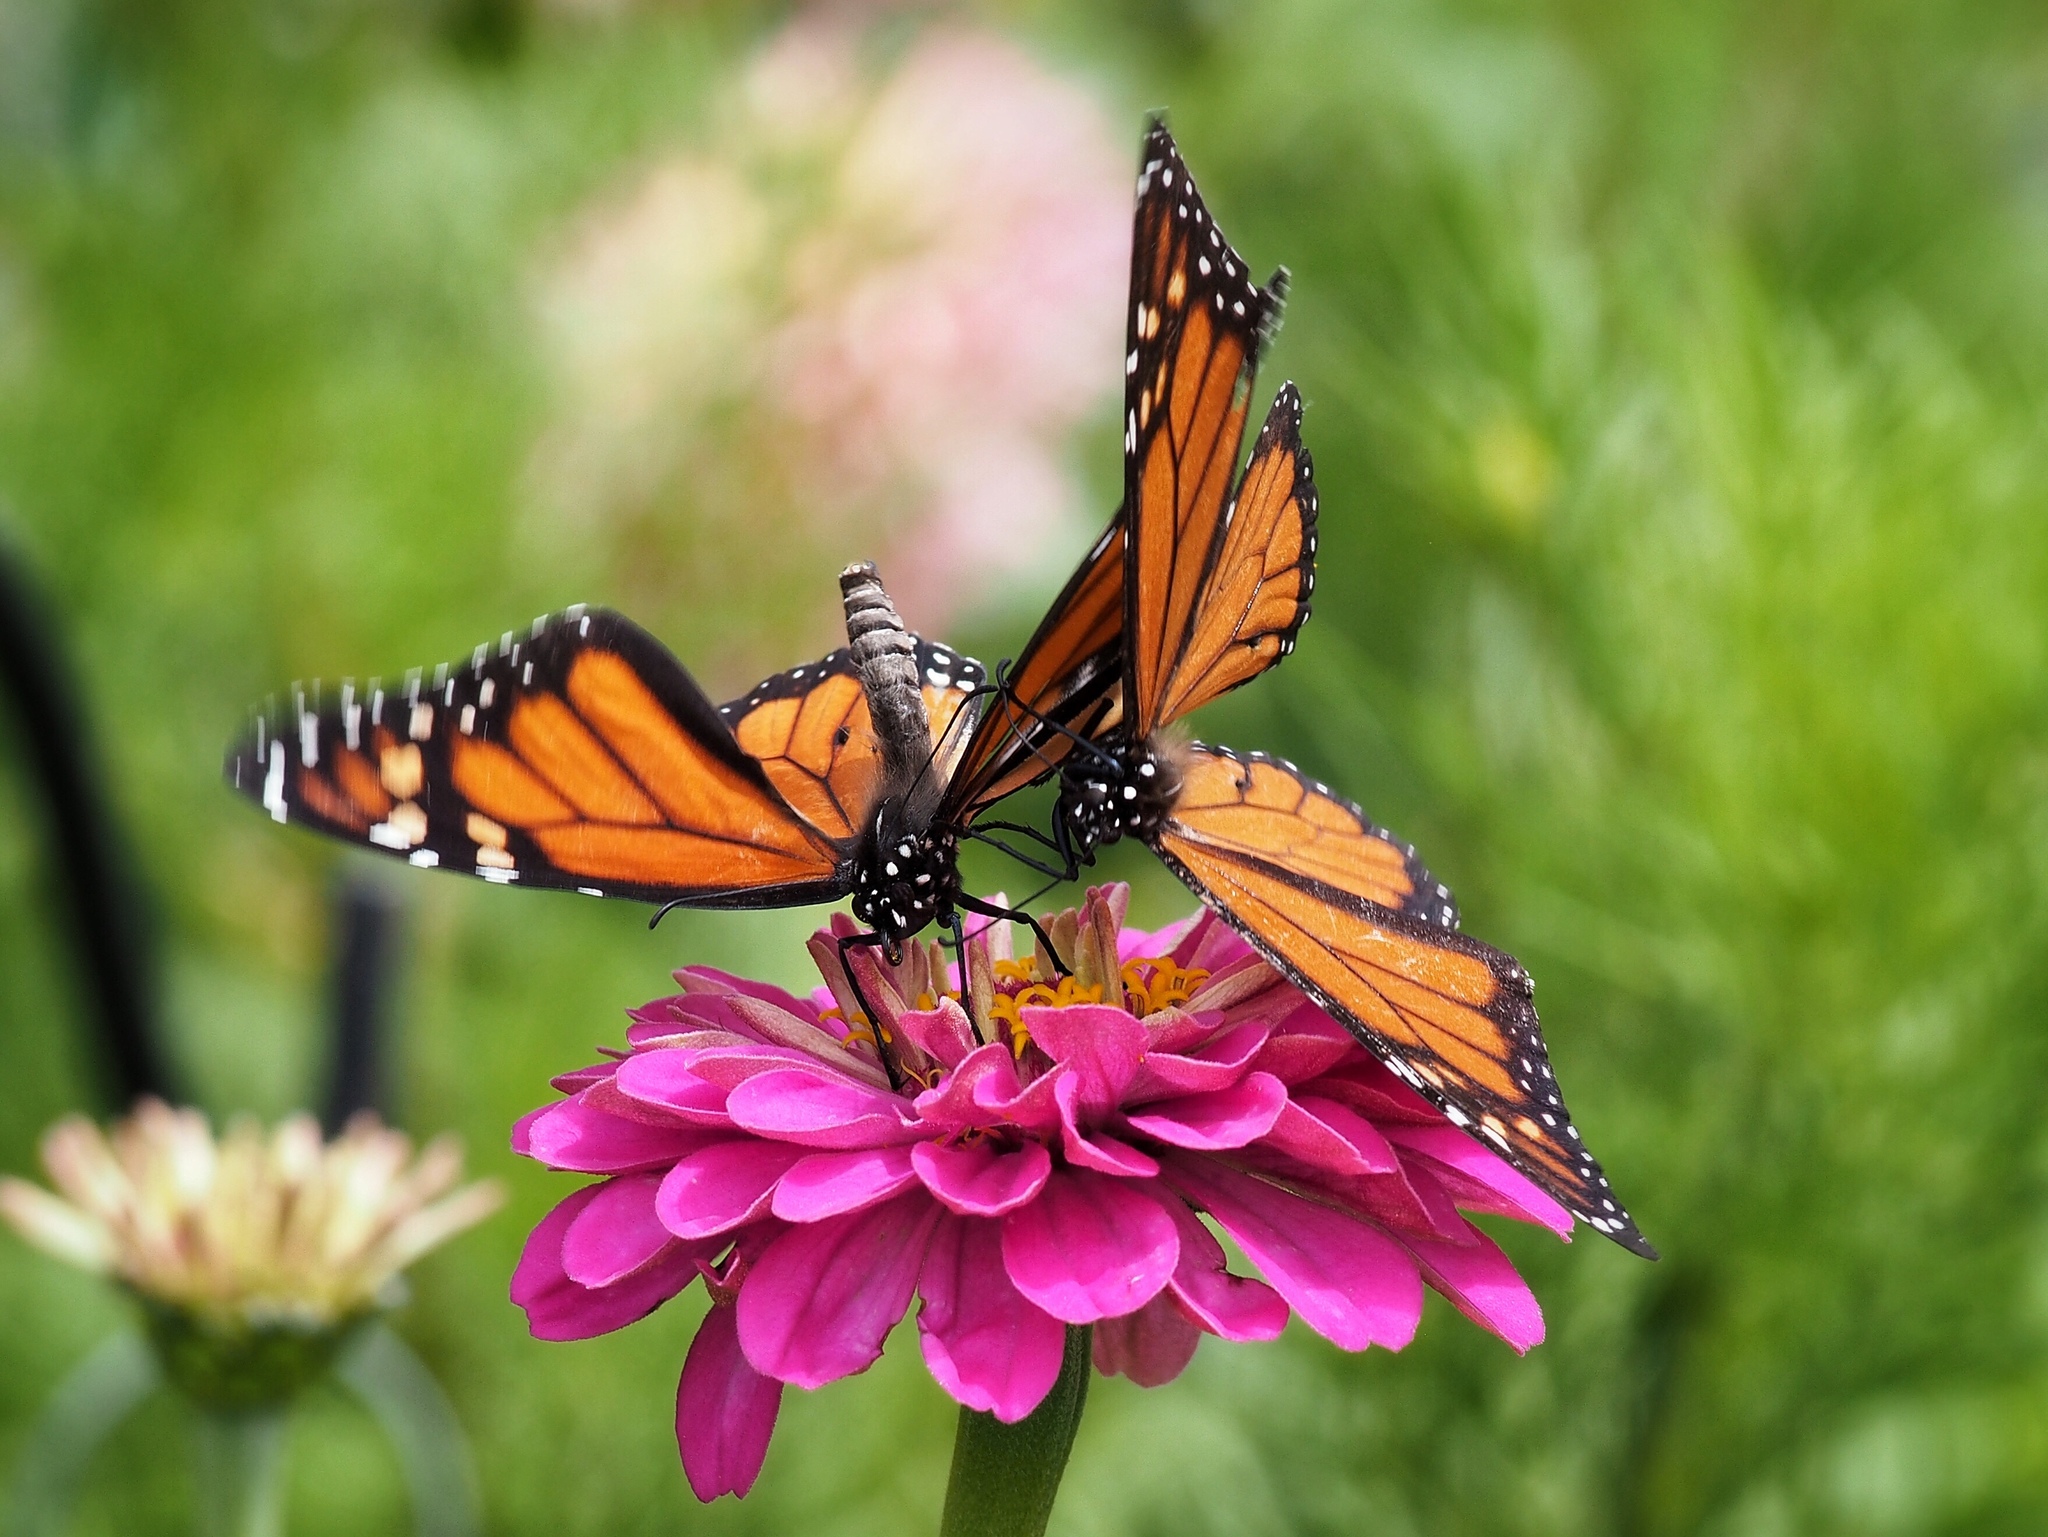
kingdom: Animalia
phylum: Arthropoda
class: Insecta
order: Lepidoptera
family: Nymphalidae
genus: Danaus
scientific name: Danaus plexippus
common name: Monarch
